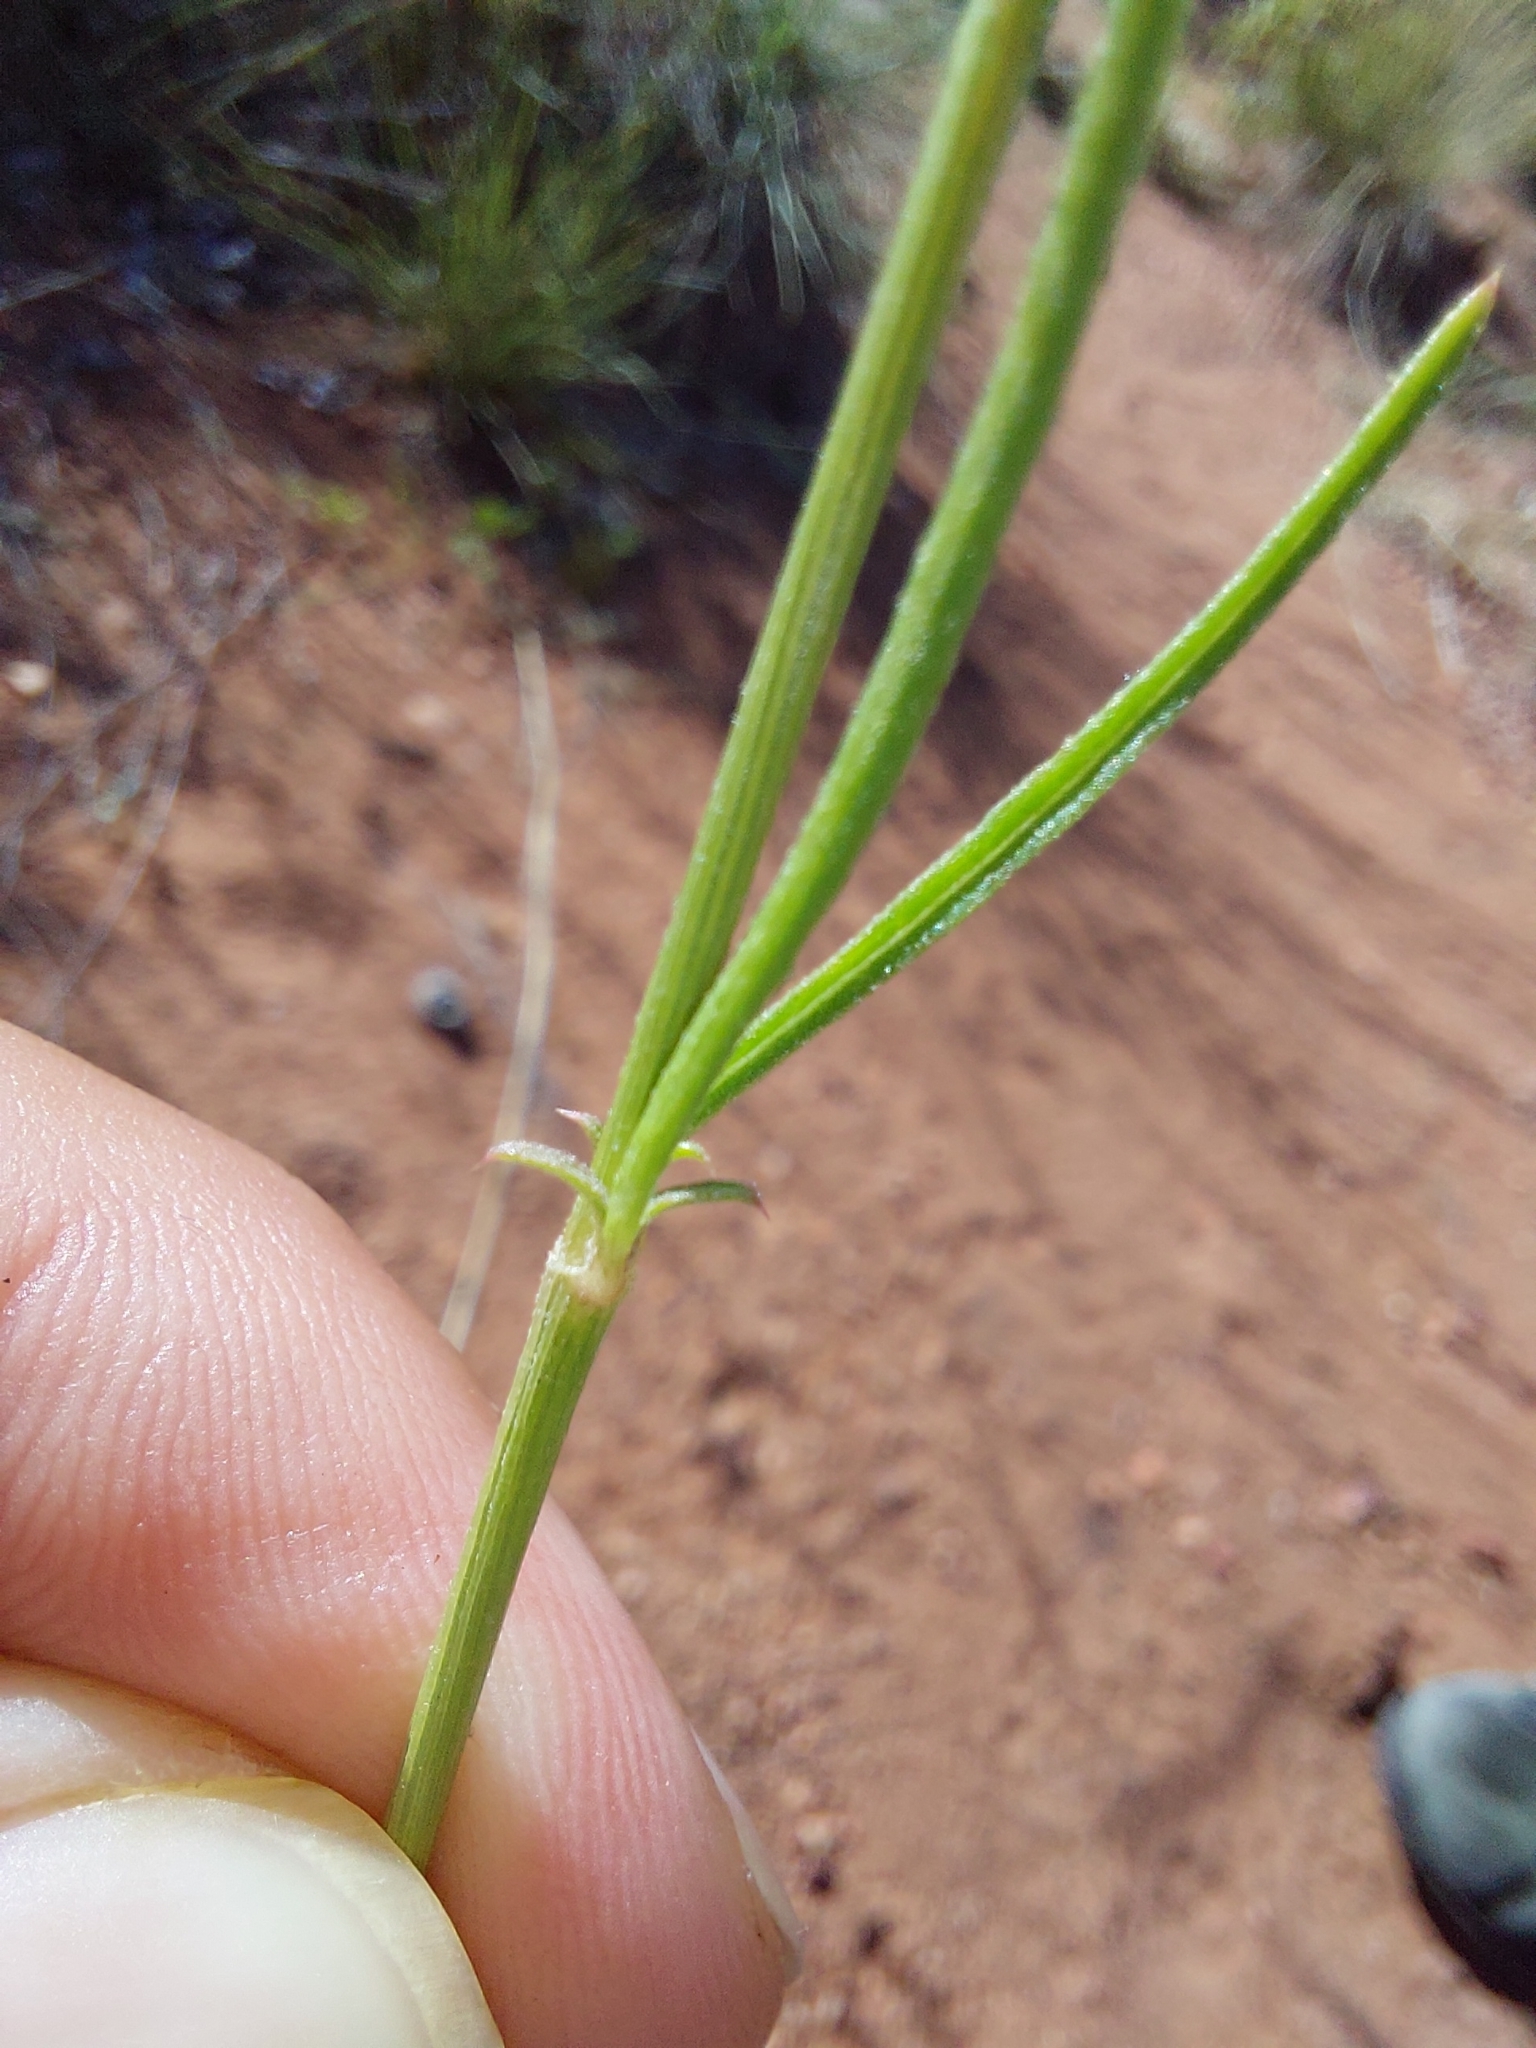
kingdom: Plantae
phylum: Tracheophyta
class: Magnoliopsida
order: Caryophyllales
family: Amaranthaceae
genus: Cyphocarpa
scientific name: Cyphocarpa angustifolia
